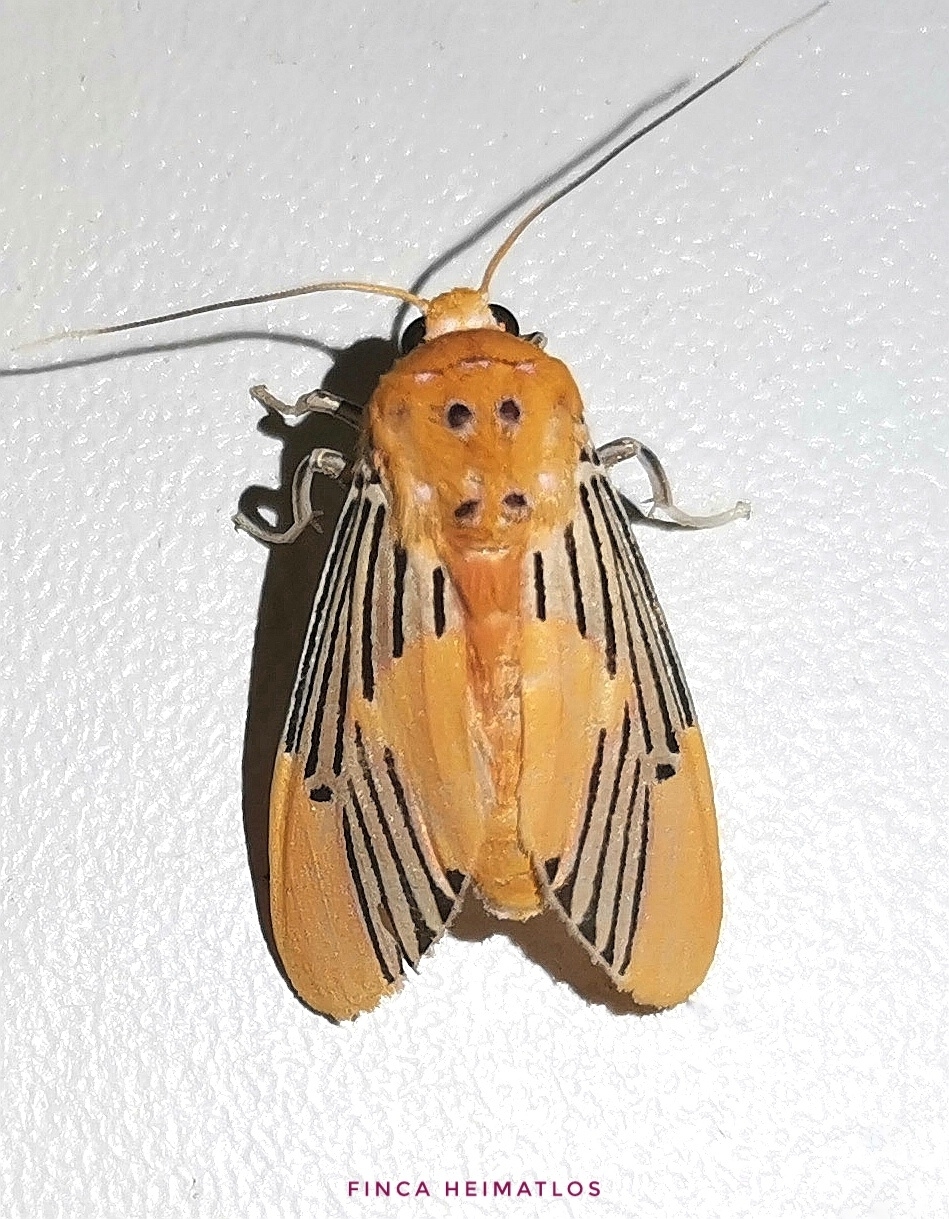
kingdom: Animalia
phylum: Arthropoda
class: Insecta
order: Lepidoptera
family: Erebidae
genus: Lepidokirbyia
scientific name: Lepidokirbyia venigera
